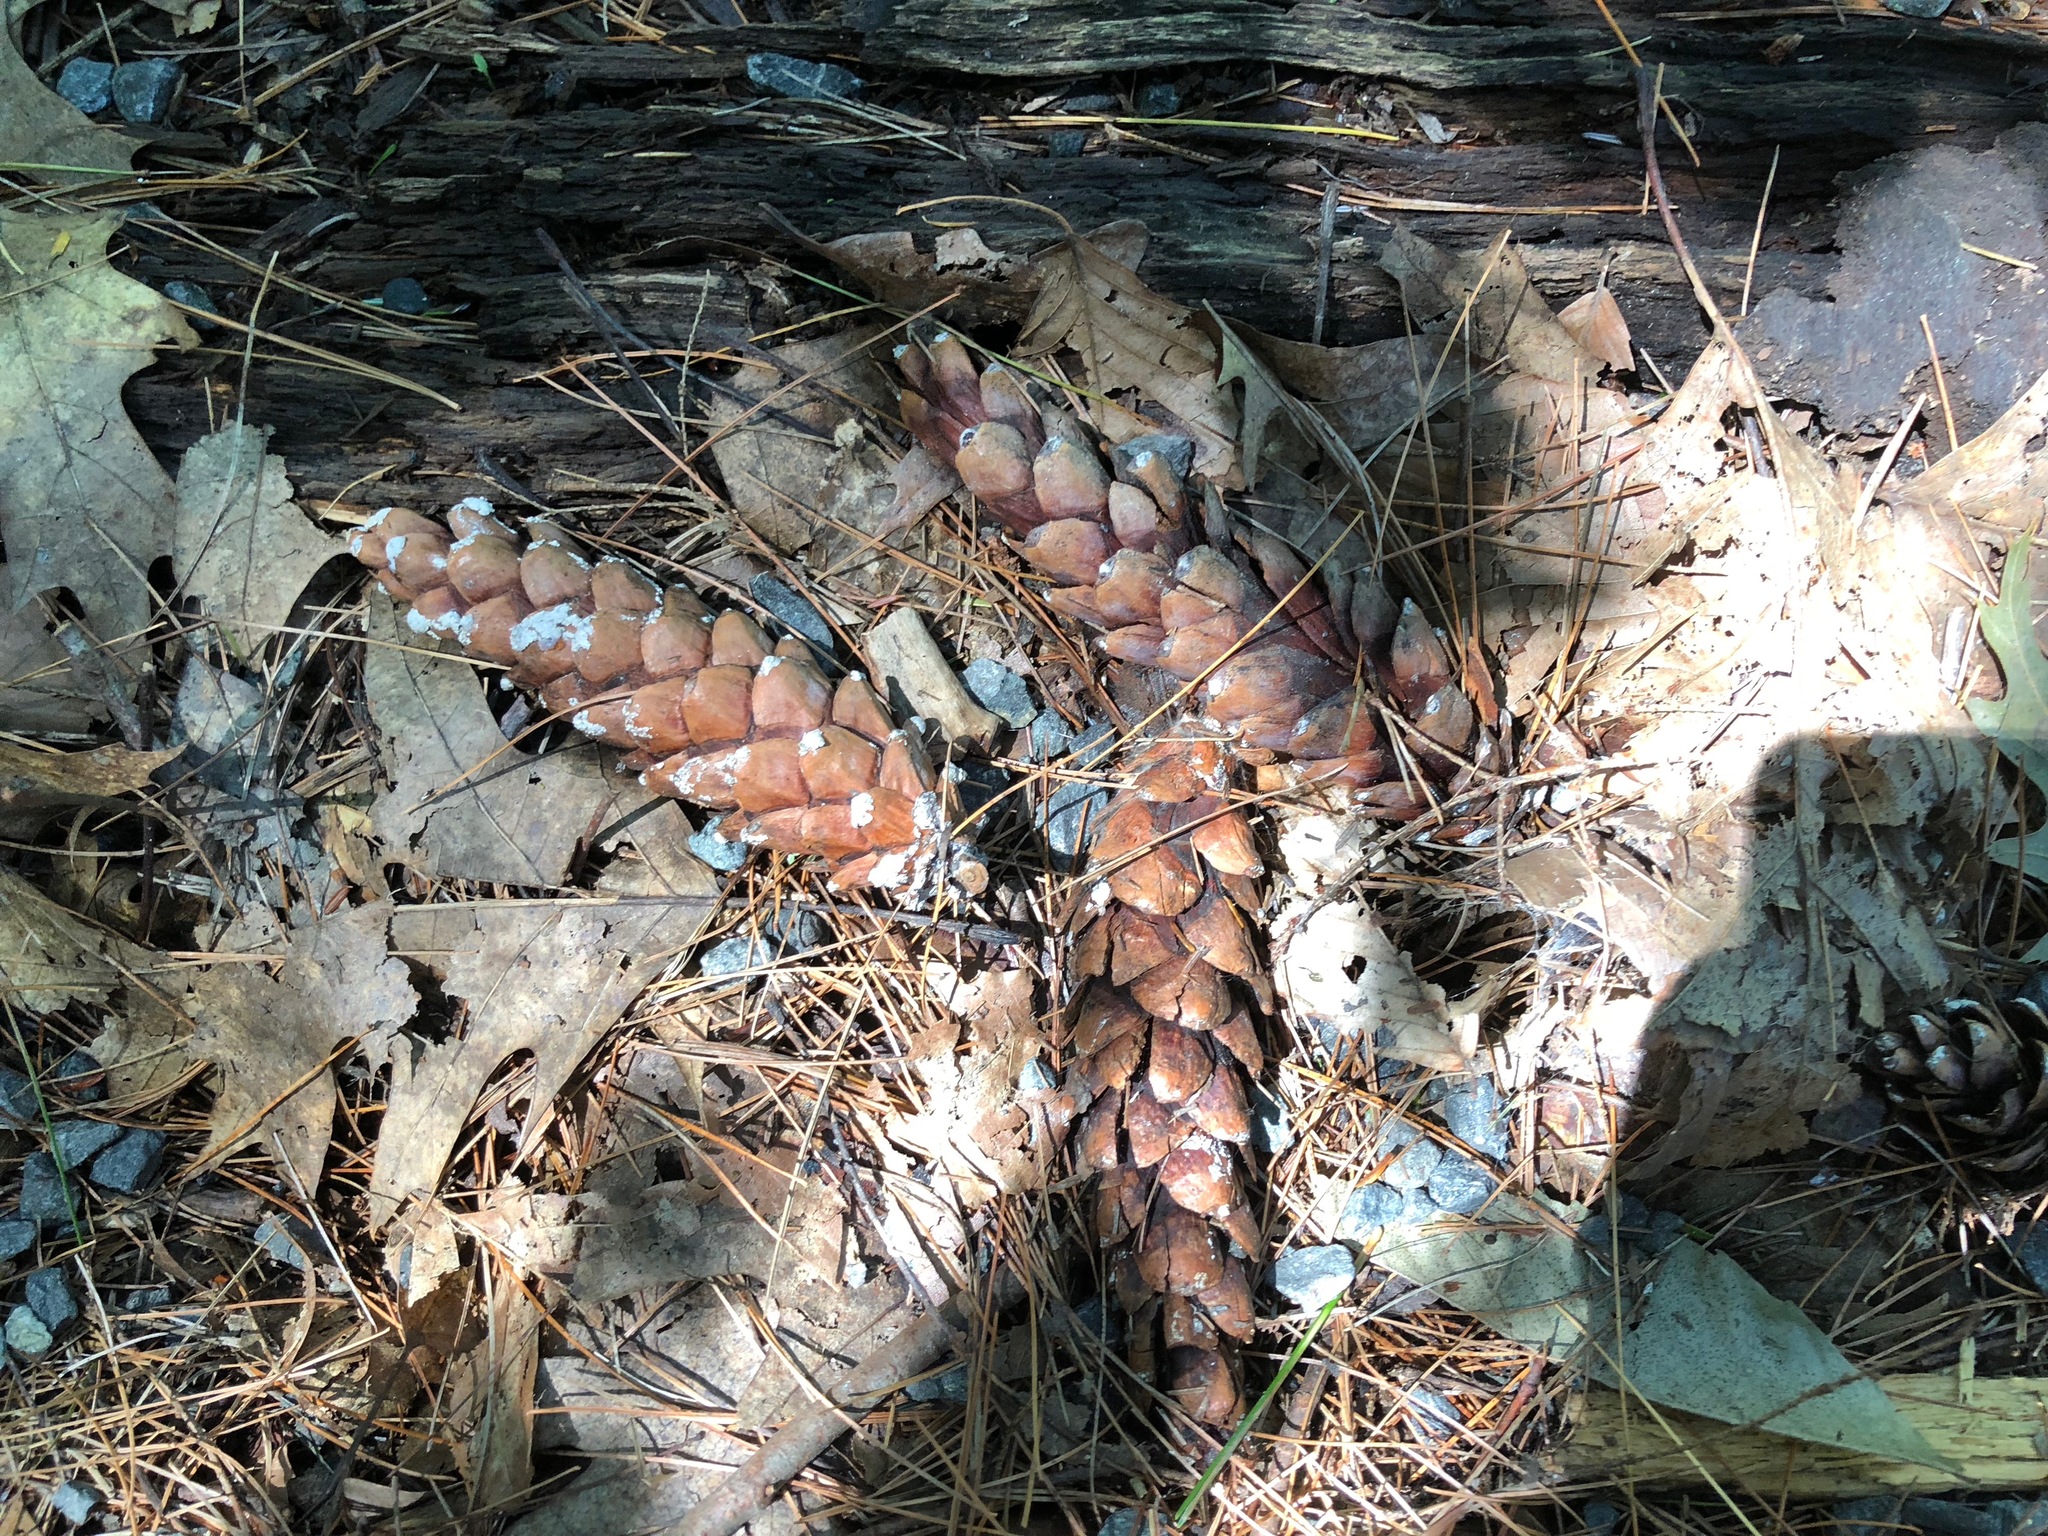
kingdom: Plantae
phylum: Tracheophyta
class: Pinopsida
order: Pinales
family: Pinaceae
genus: Pinus
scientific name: Pinus strobus
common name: Weymouth pine
